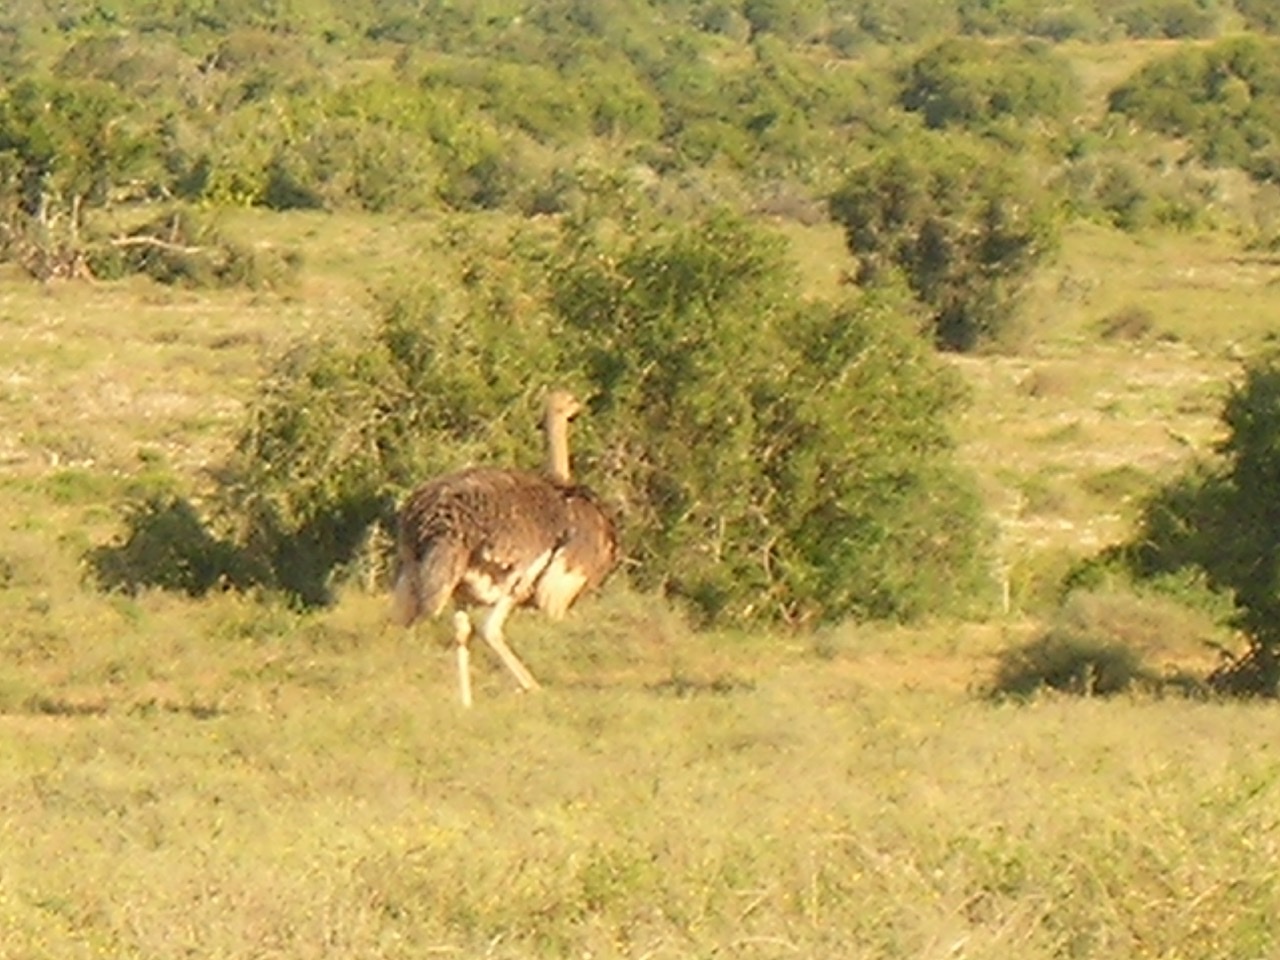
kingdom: Animalia
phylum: Chordata
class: Aves
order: Struthioniformes
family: Struthionidae
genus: Struthio
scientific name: Struthio camelus
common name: Common ostrich
